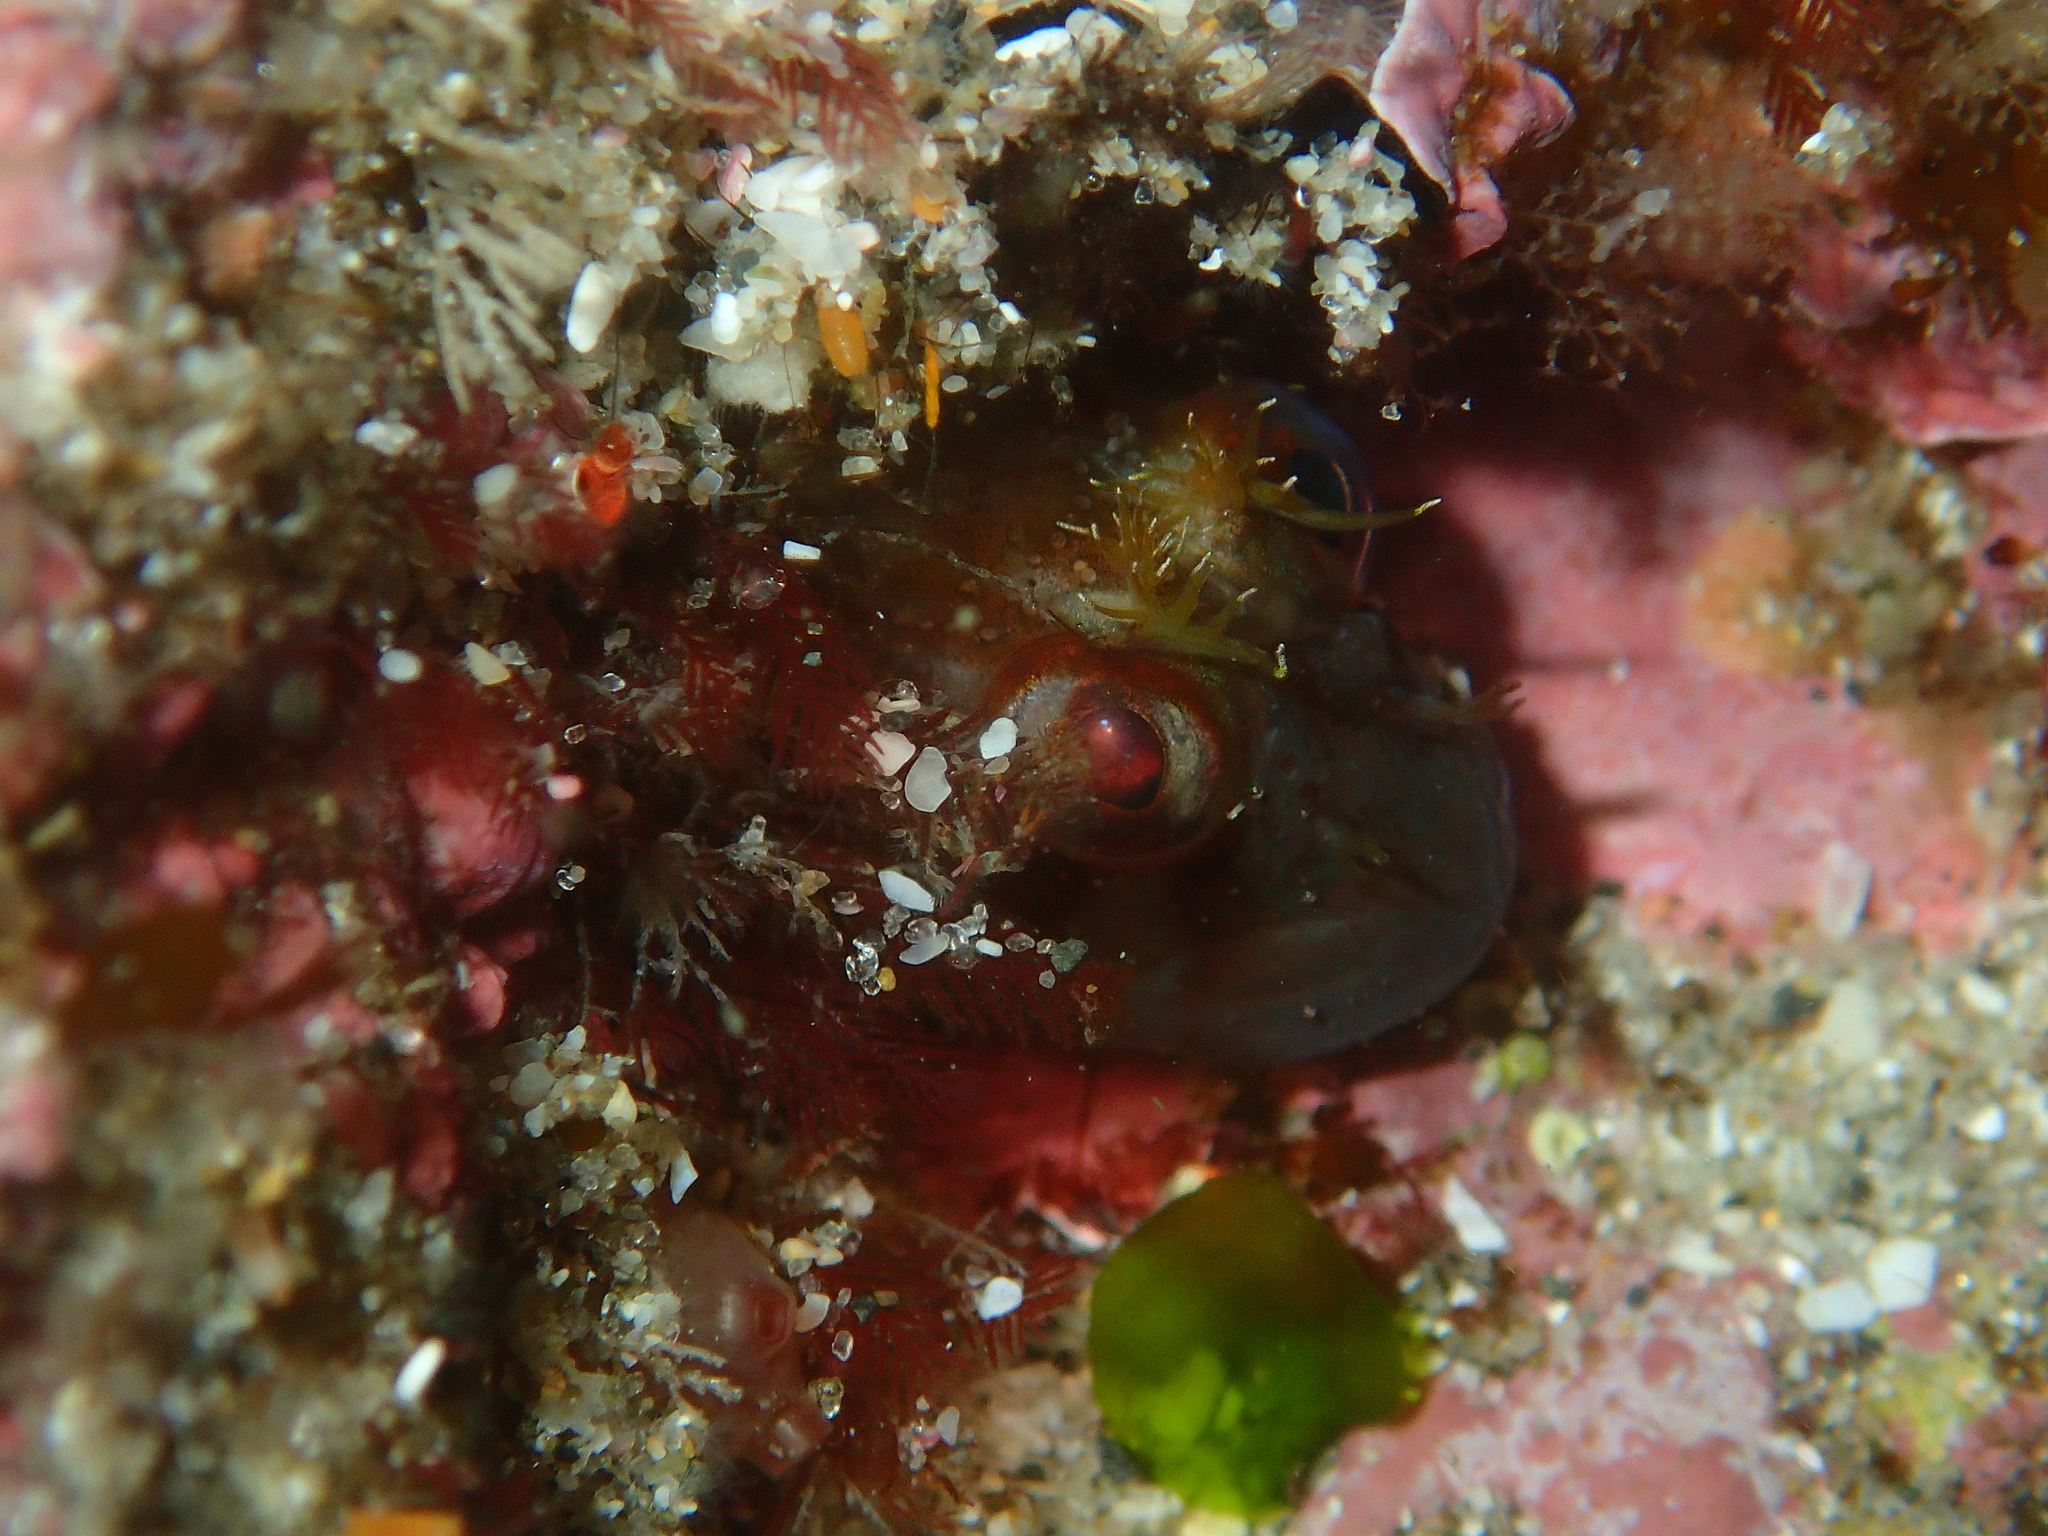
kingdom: Animalia
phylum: Chordata
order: Perciformes
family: Blenniidae
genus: Parablennius
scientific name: Parablennius laticlavius
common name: Crested blenny
